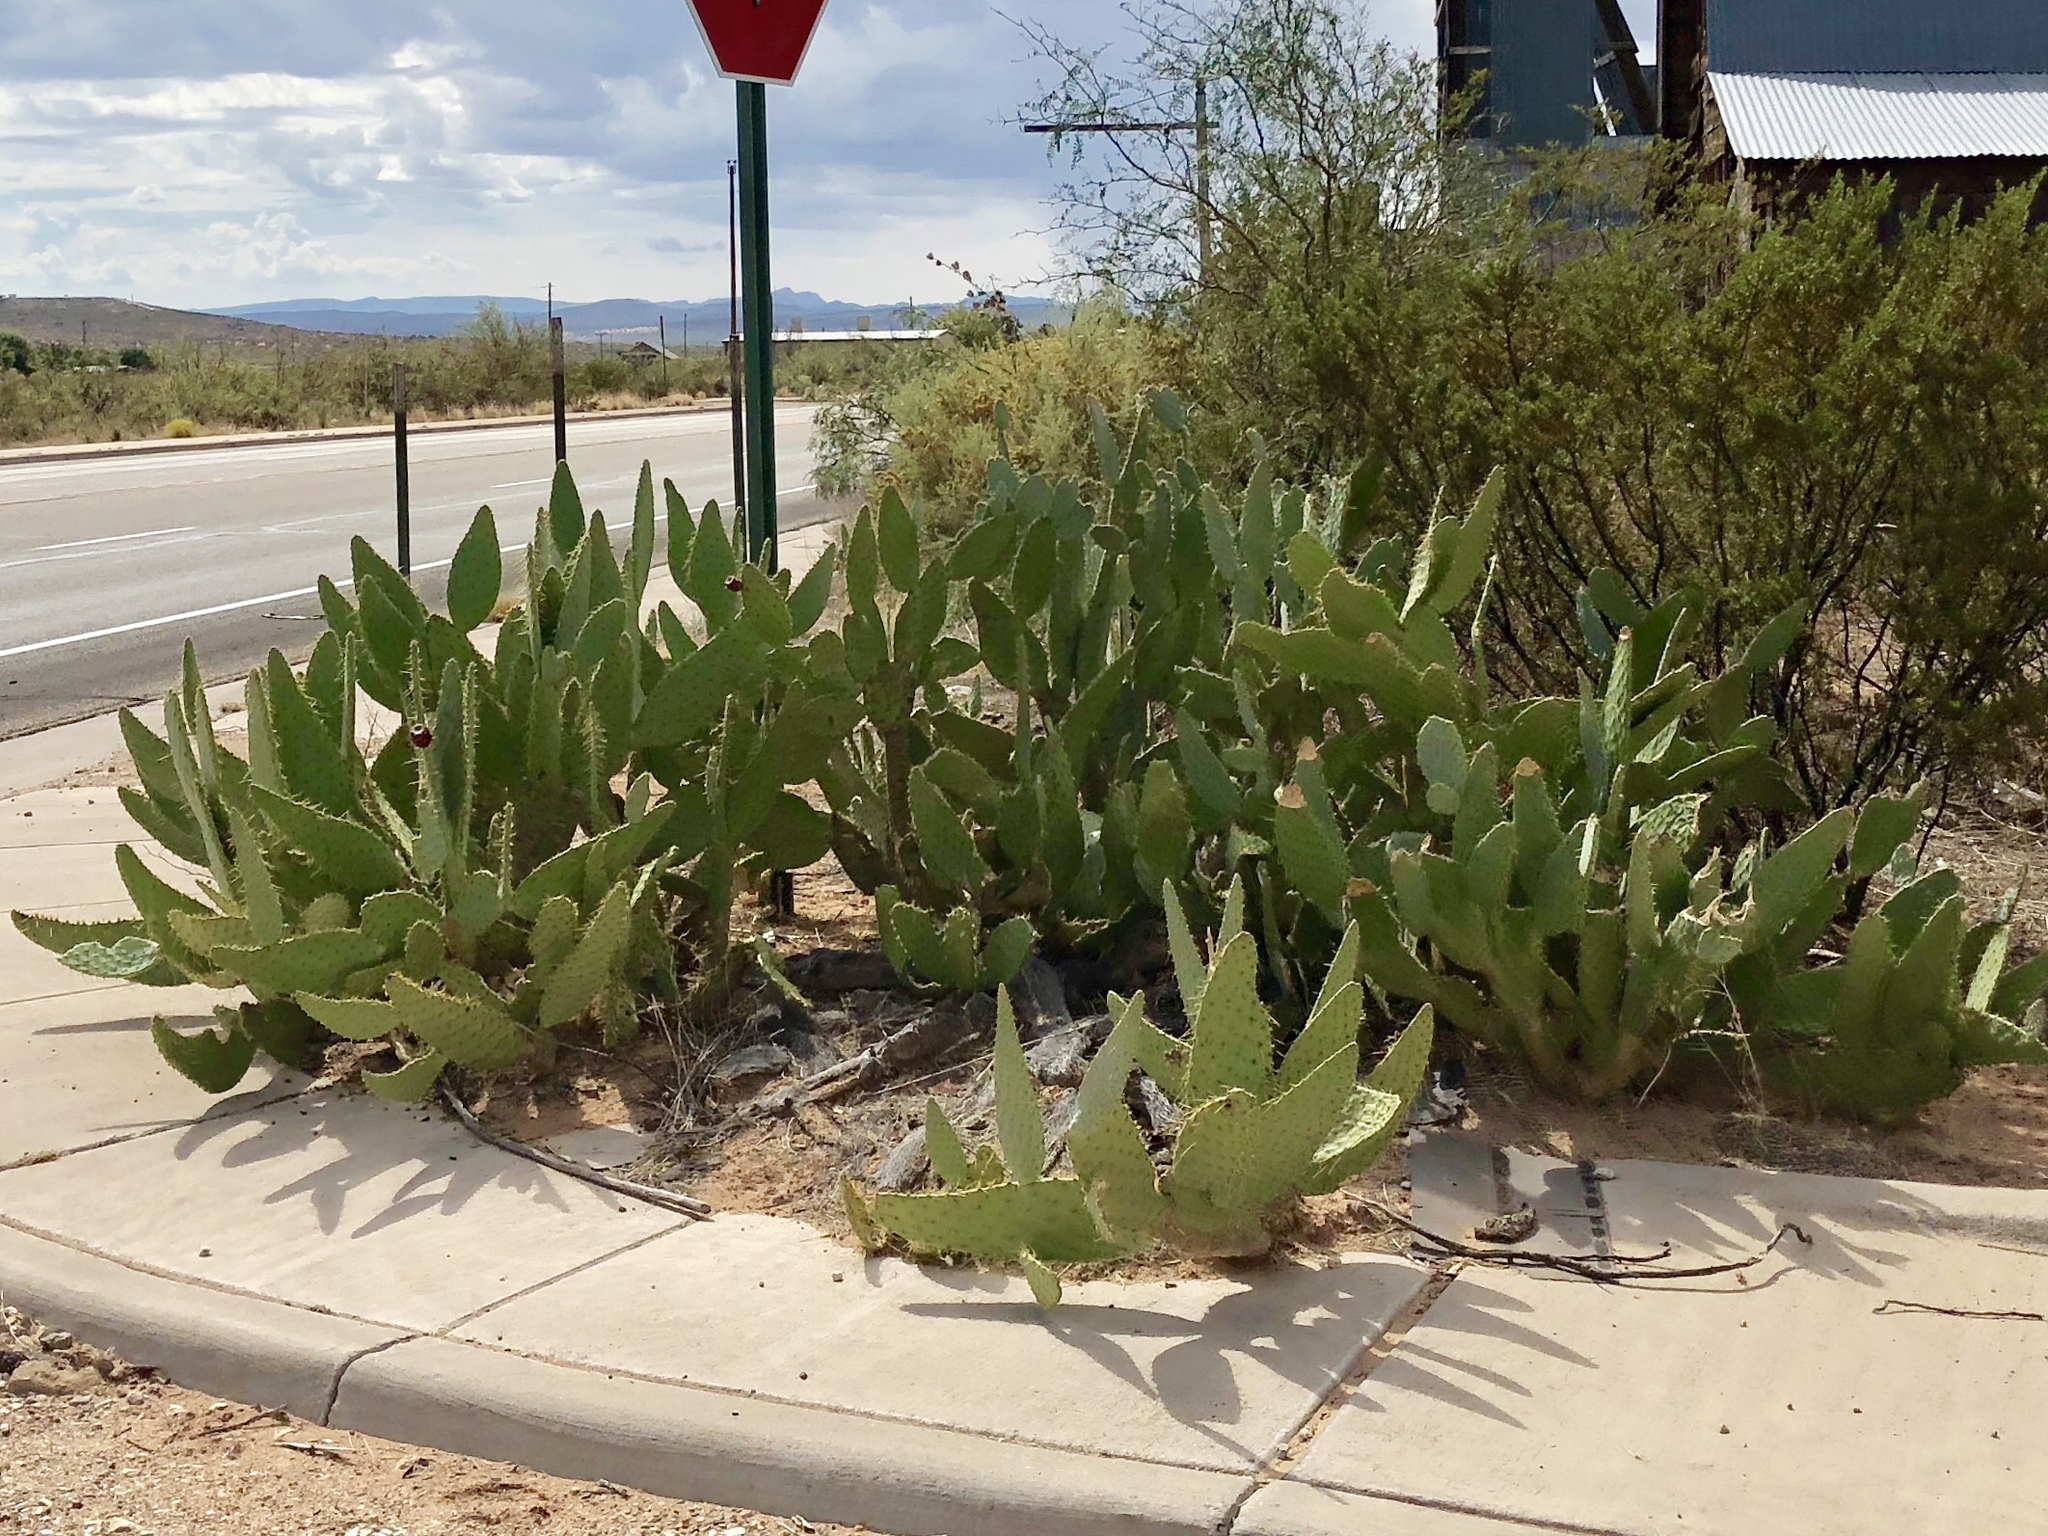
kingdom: Plantae
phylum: Tracheophyta
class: Magnoliopsida
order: Caryophyllales
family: Cactaceae
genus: Opuntia
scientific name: Opuntia engelmannii
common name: Cactus-apple
